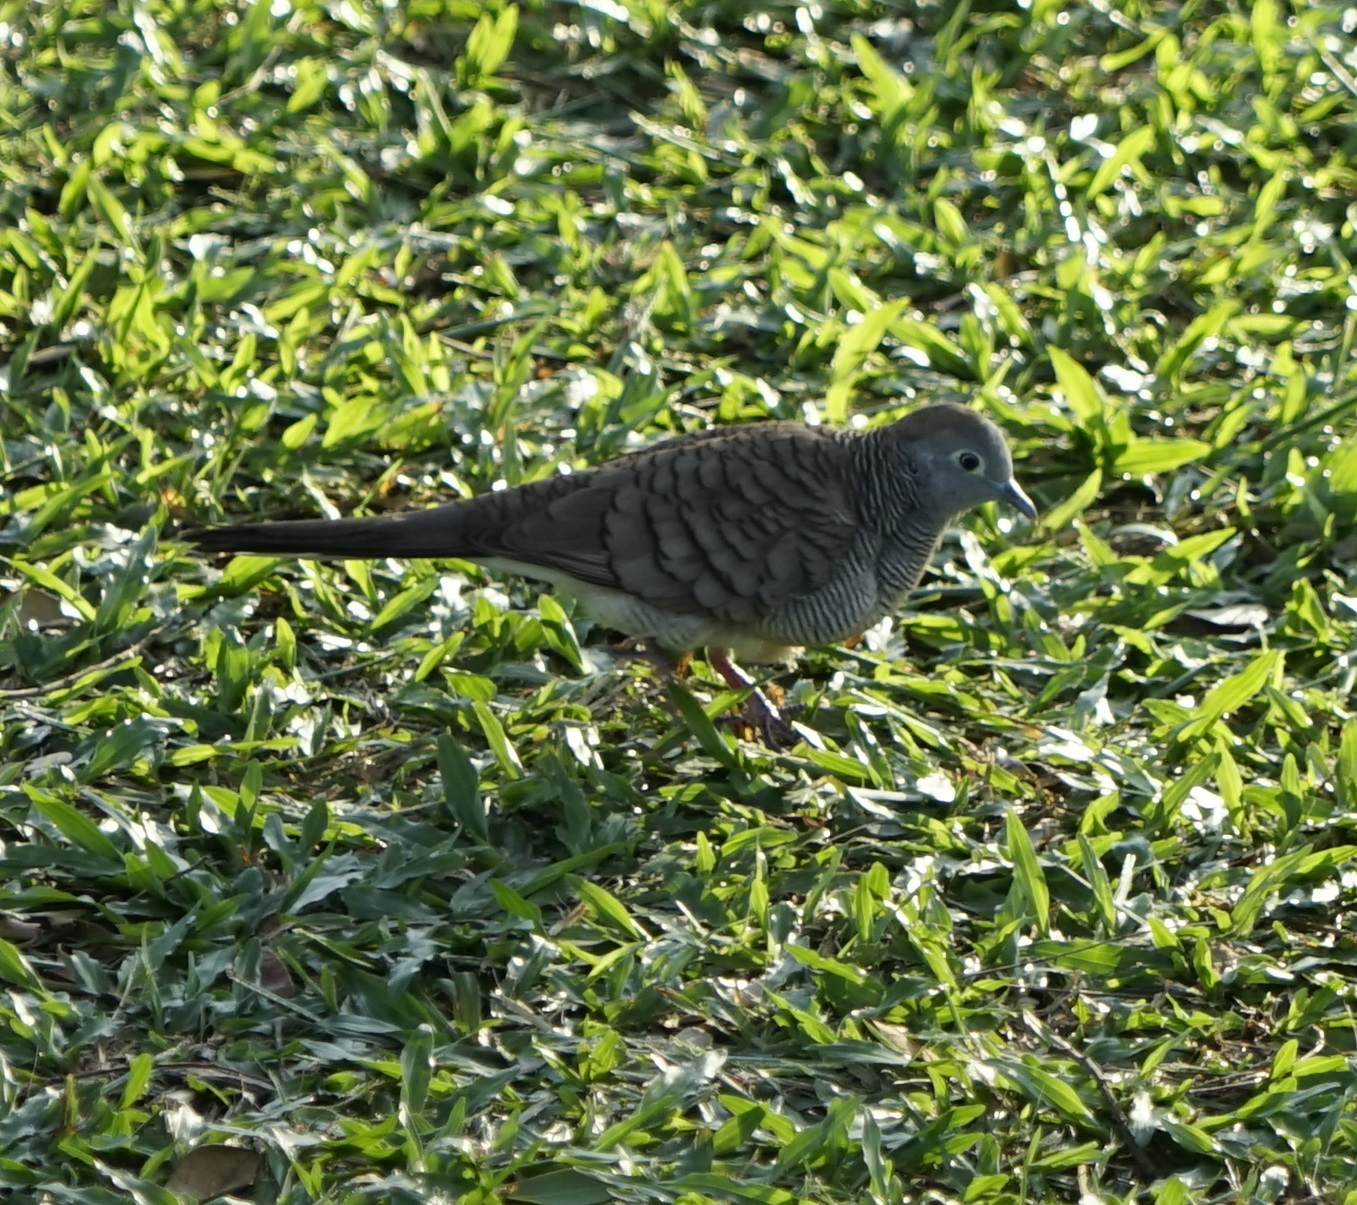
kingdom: Animalia
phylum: Chordata
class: Aves
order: Columbiformes
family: Columbidae
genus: Geopelia
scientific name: Geopelia striata
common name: Zebra dove
